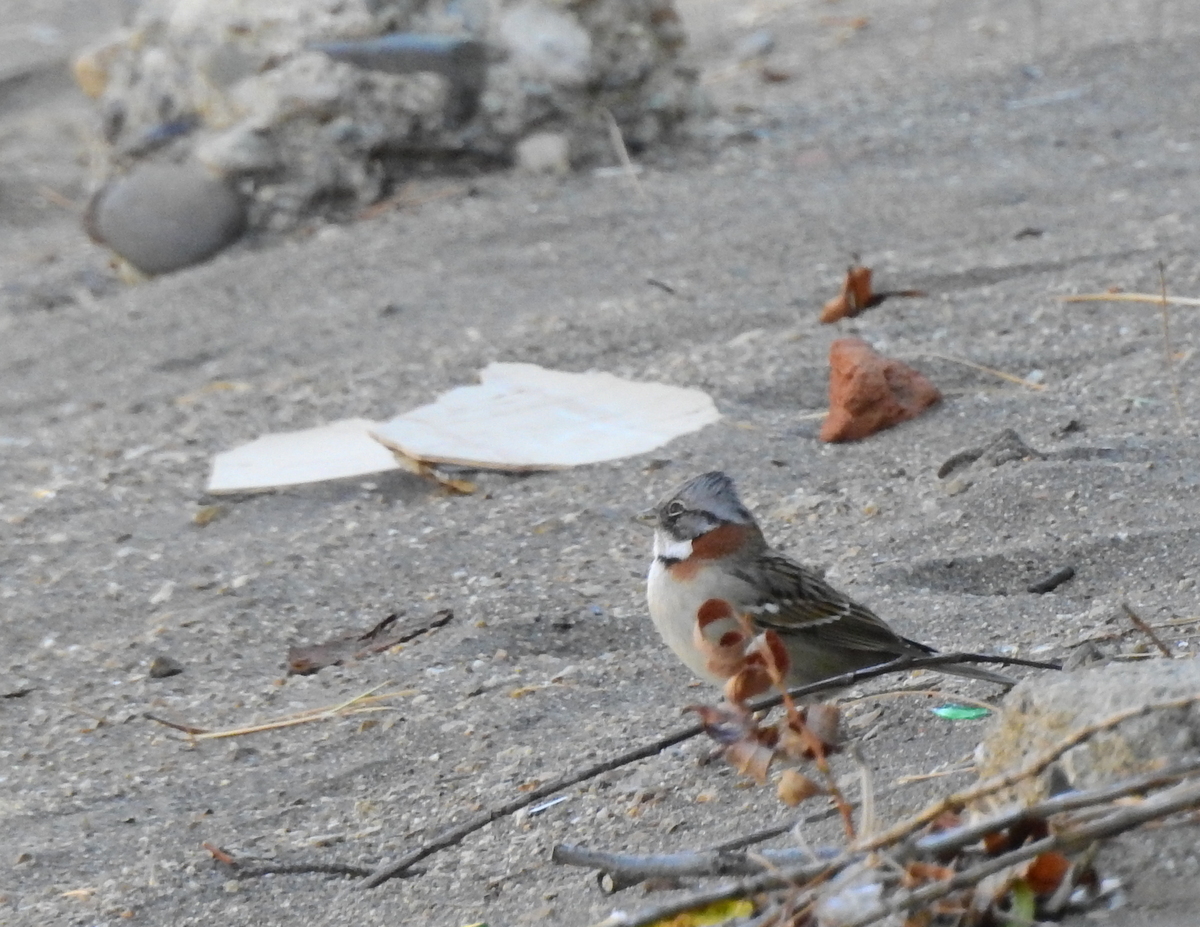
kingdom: Animalia
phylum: Chordata
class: Aves
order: Passeriformes
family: Passerellidae
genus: Zonotrichia
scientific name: Zonotrichia capensis
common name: Rufous-collared sparrow
